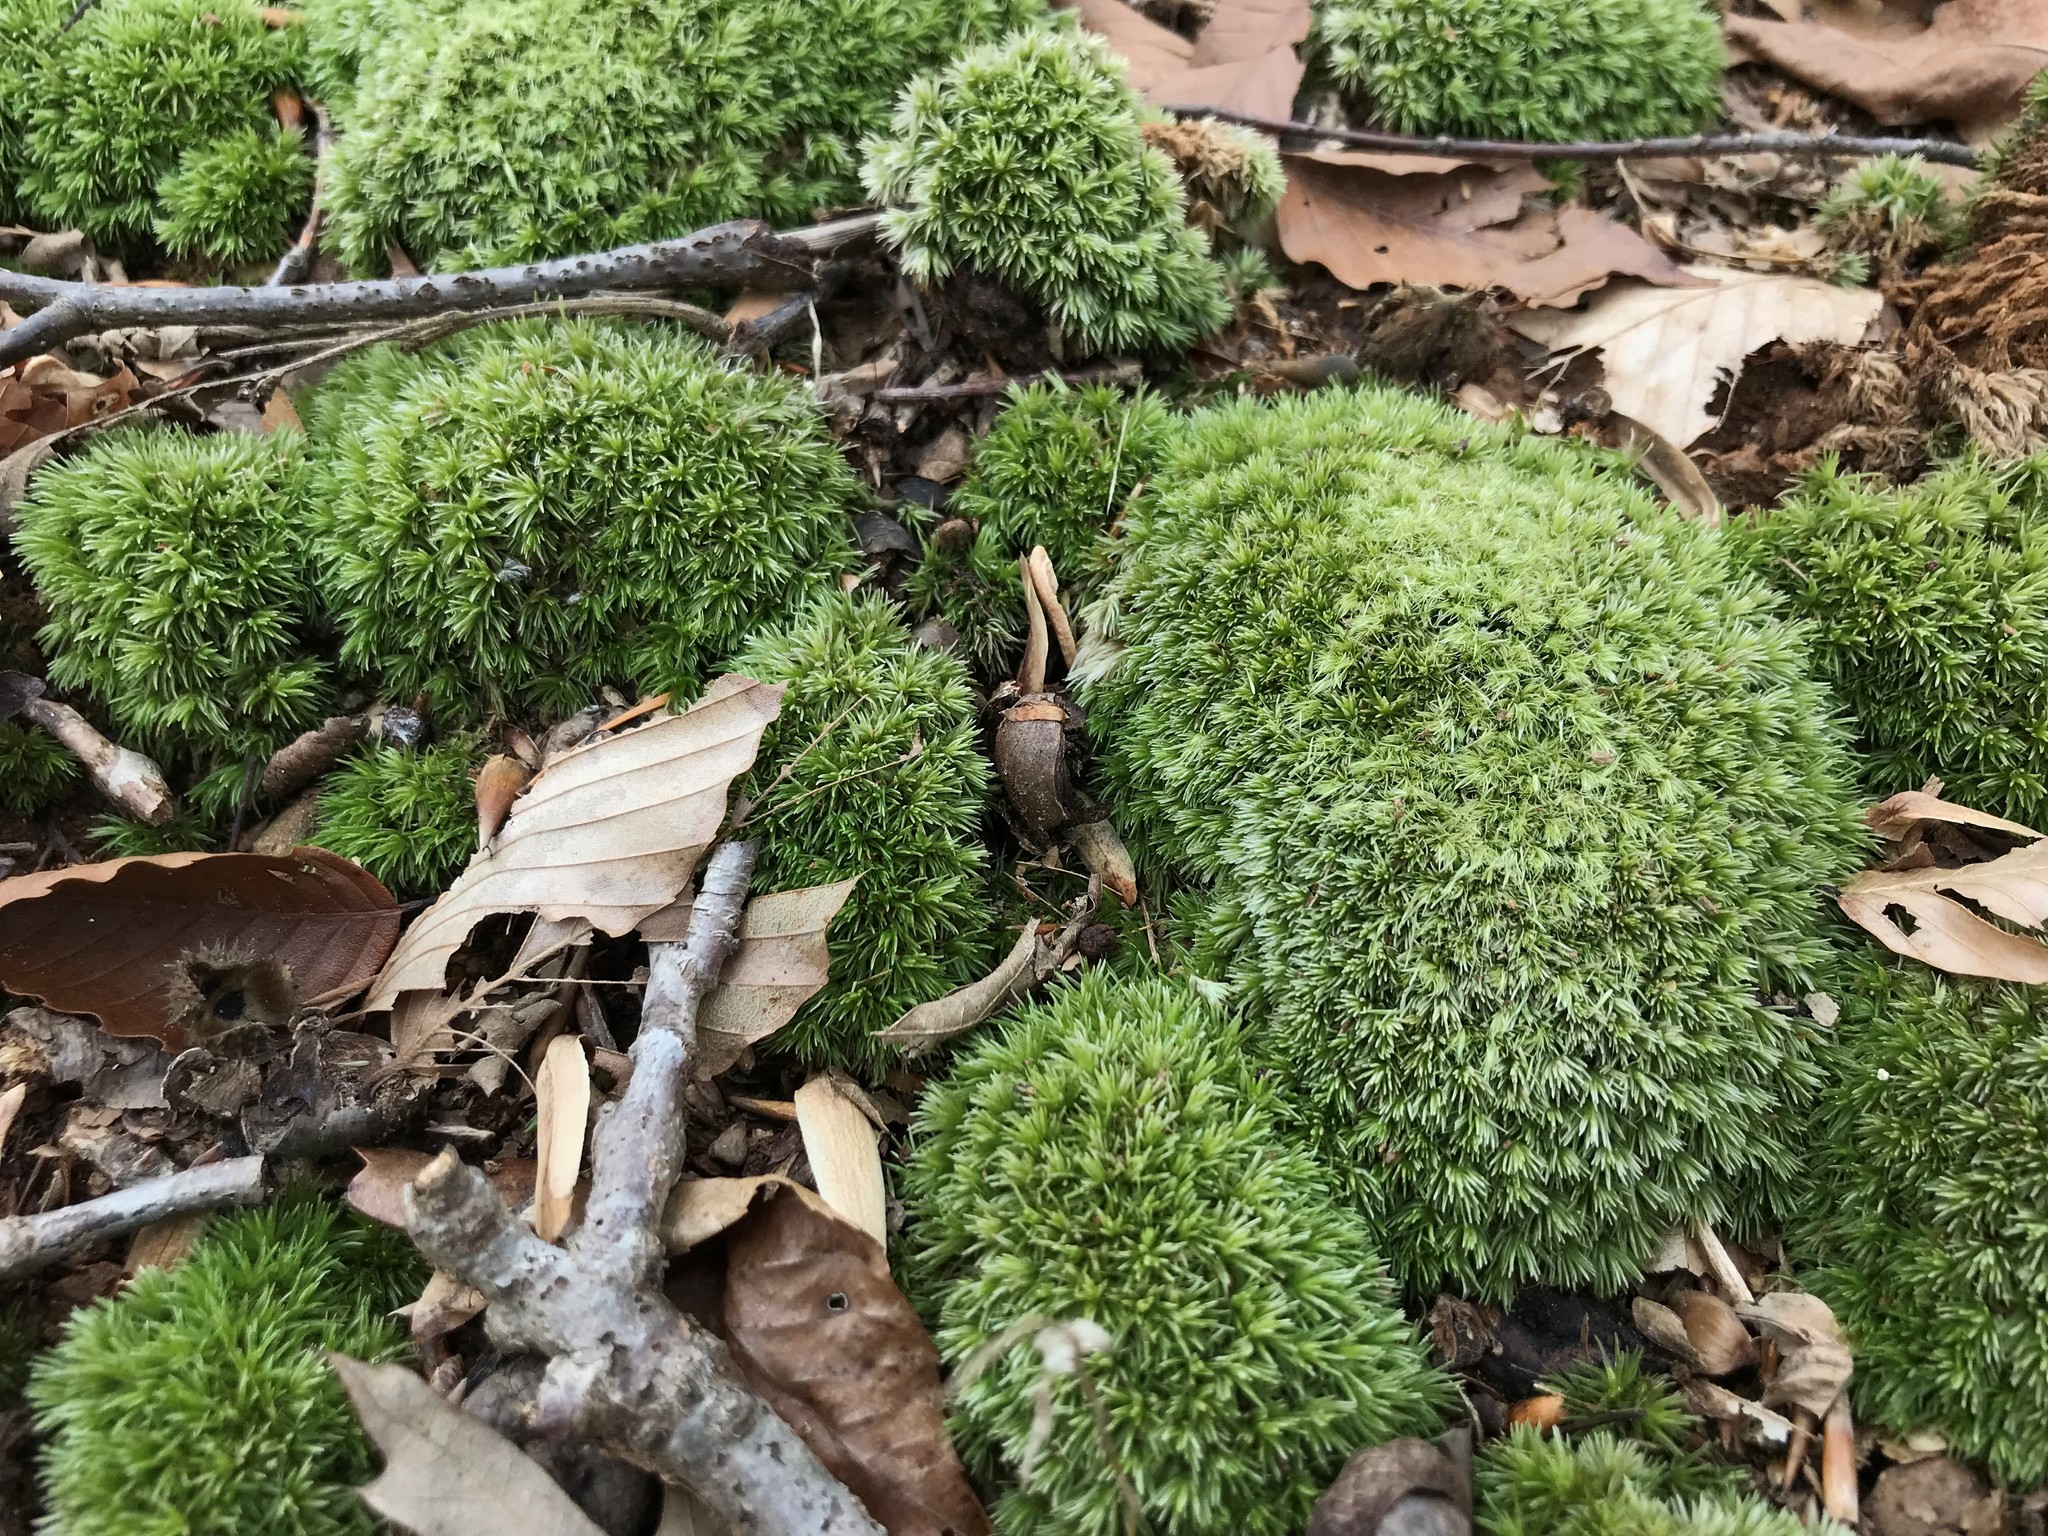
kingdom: Plantae
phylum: Bryophyta
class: Bryopsida
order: Dicranales
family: Leucobryaceae
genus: Leucobryum
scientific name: Leucobryum glaucum
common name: Large white-moss
